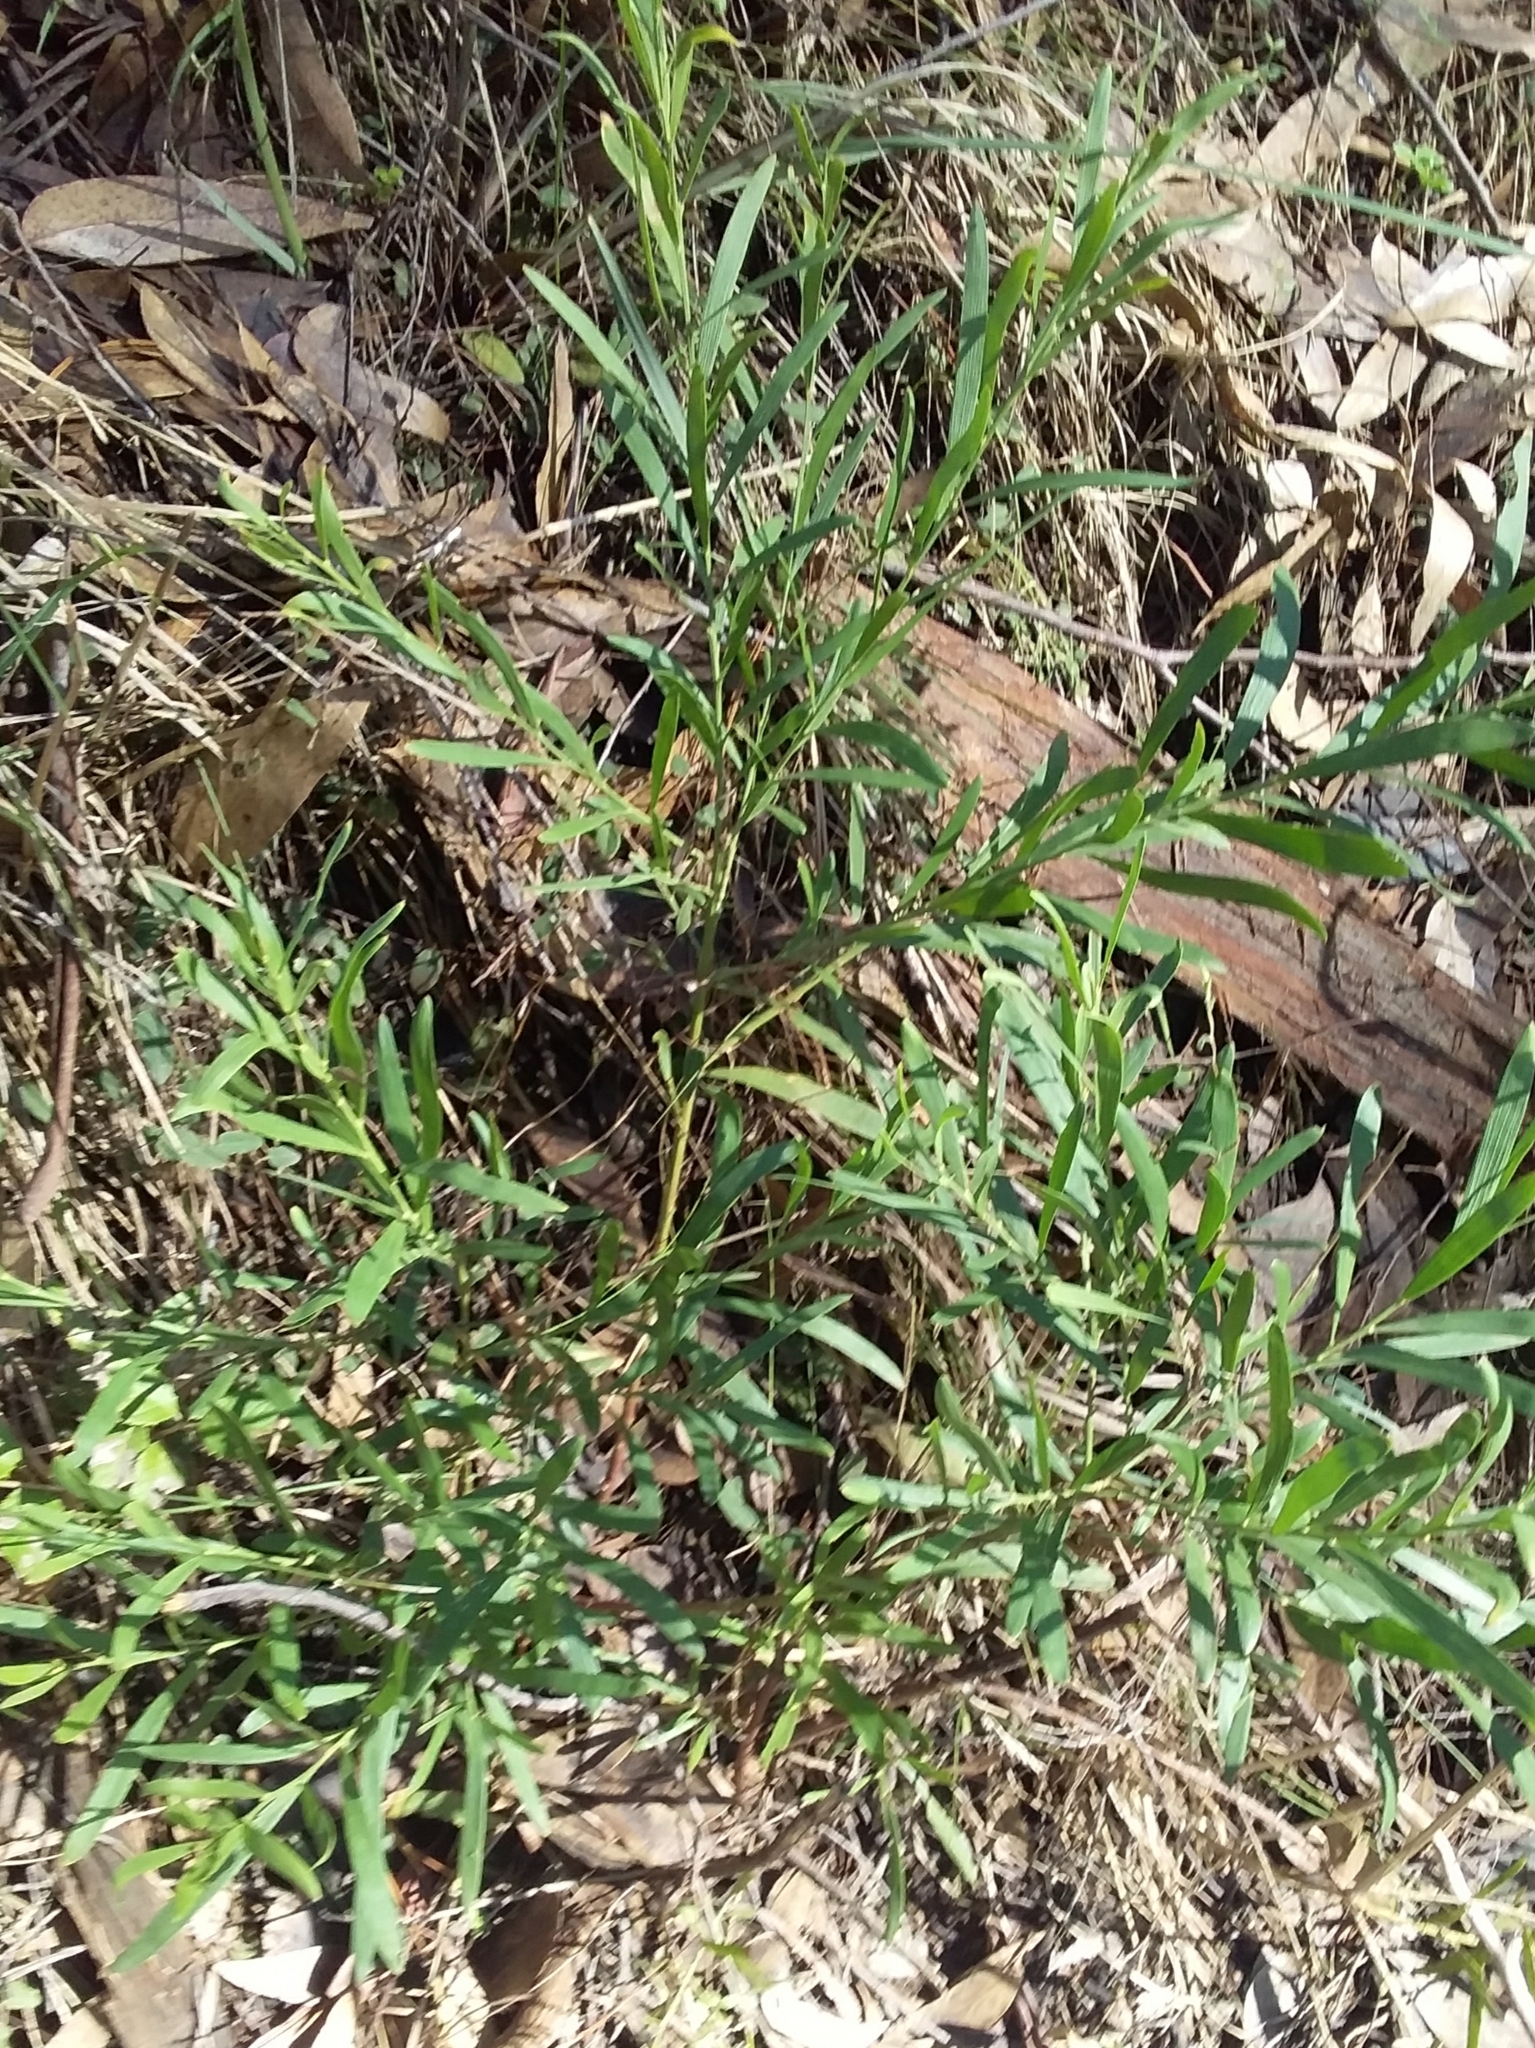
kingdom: Plantae
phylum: Tracheophyta
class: Magnoliopsida
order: Fabales
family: Fabaceae
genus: Daviesia
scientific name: Daviesia leptophylla
